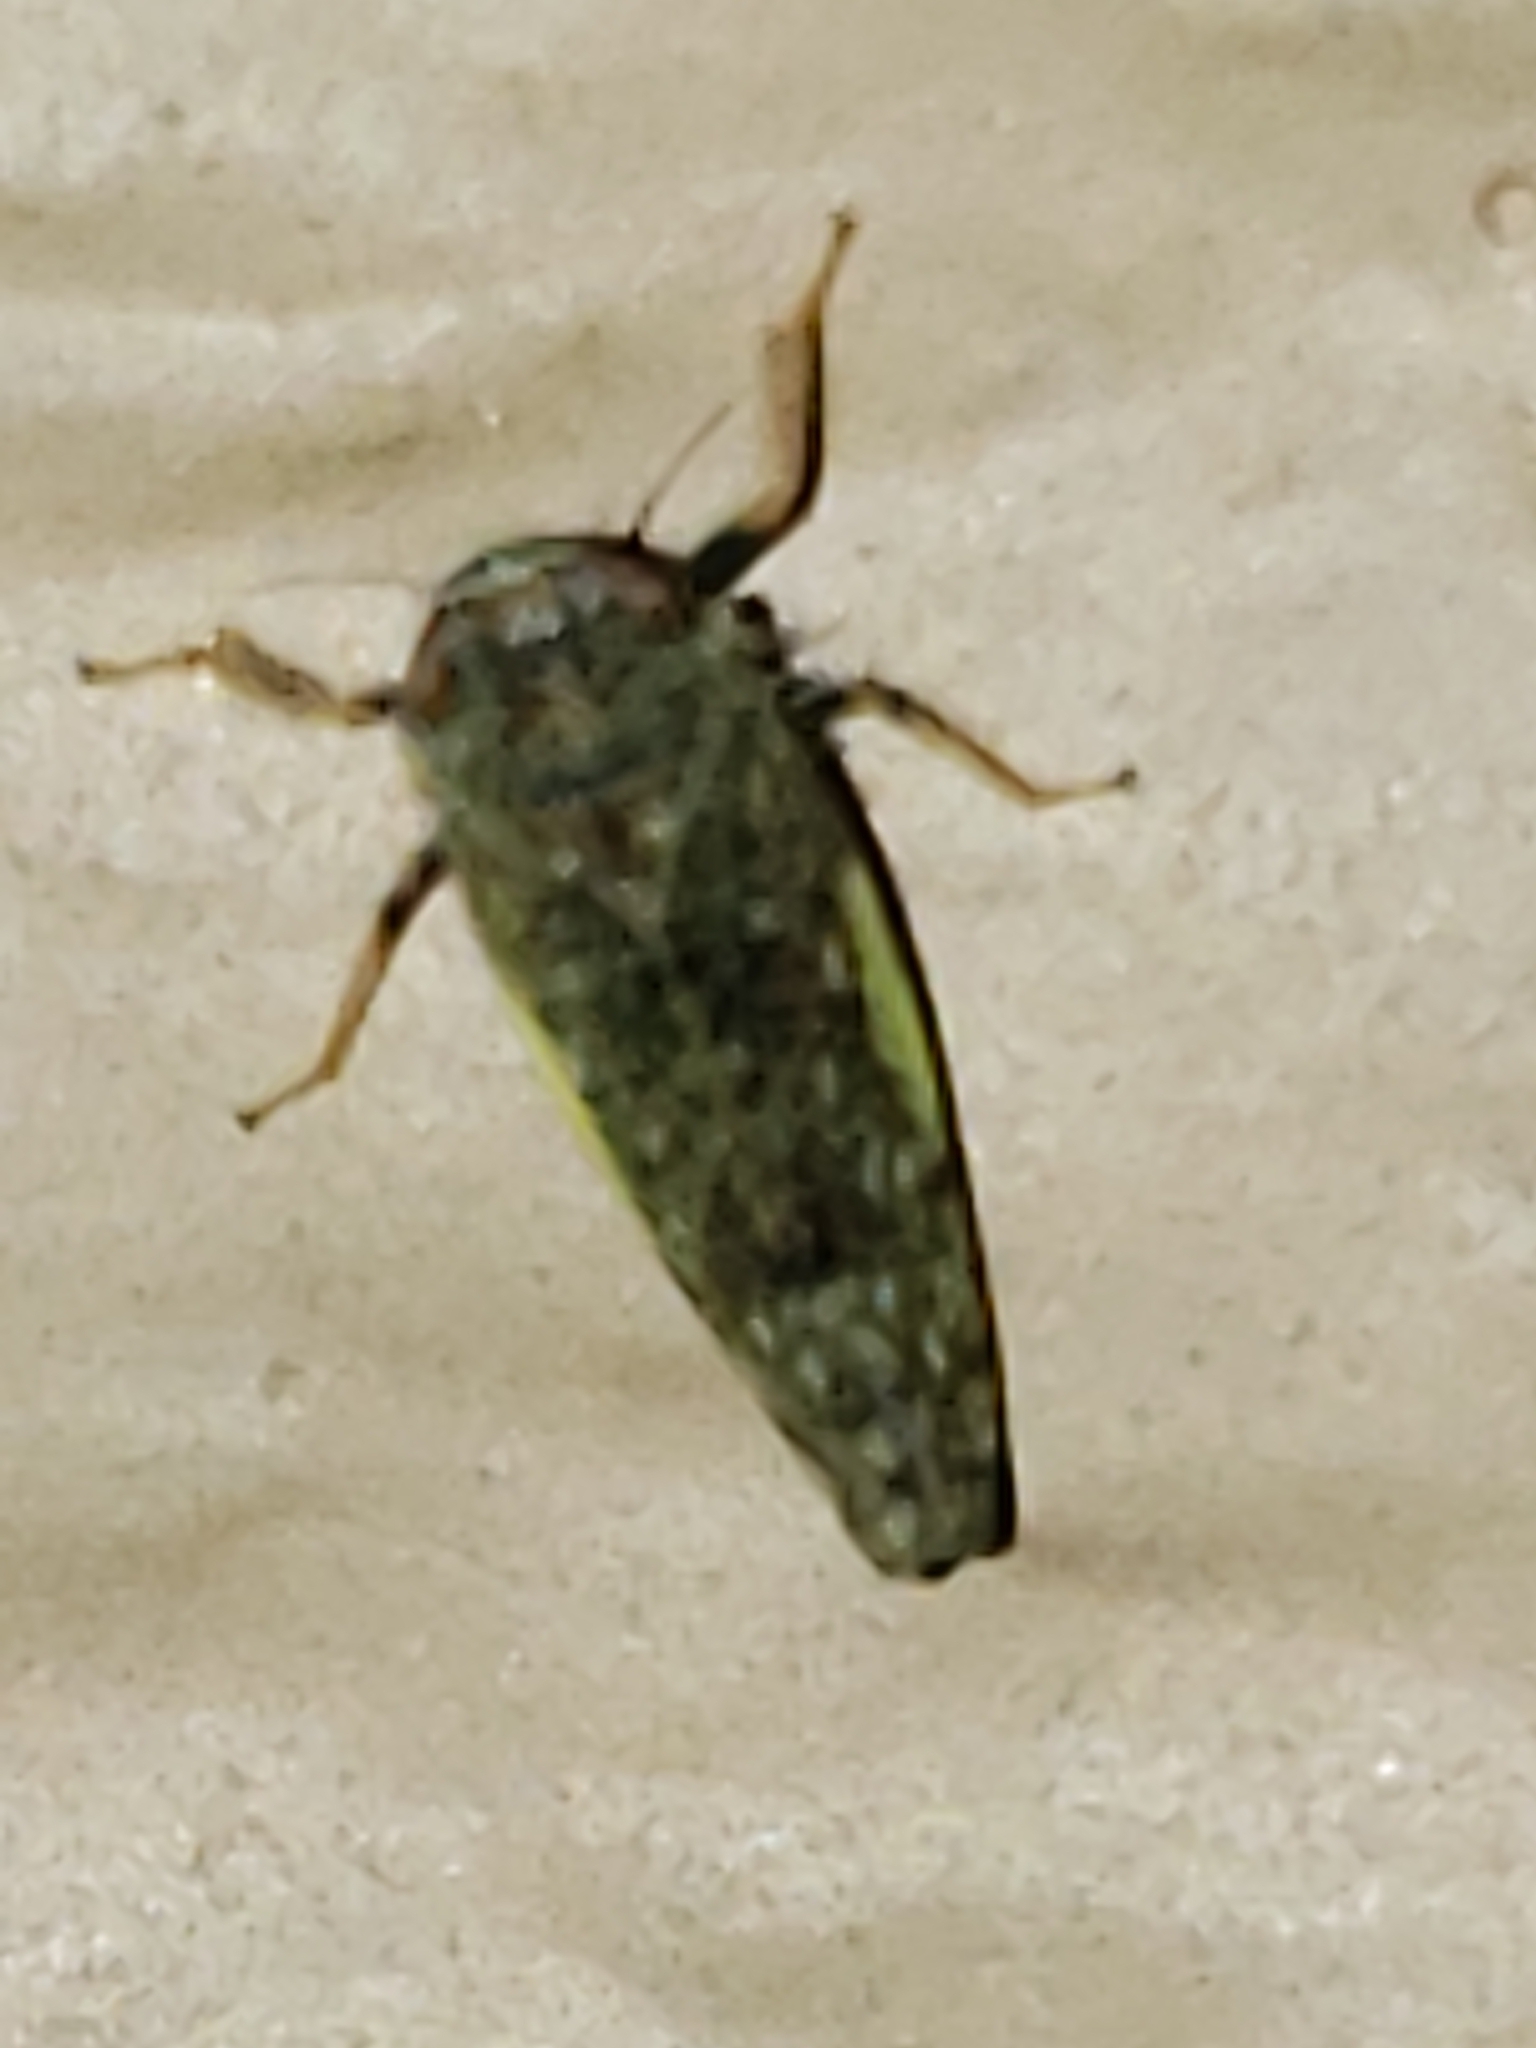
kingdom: Animalia
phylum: Arthropoda
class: Insecta
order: Hemiptera
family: Cicadellidae
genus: Orientus
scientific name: Orientus ishidae
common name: Japanese leafhopper
